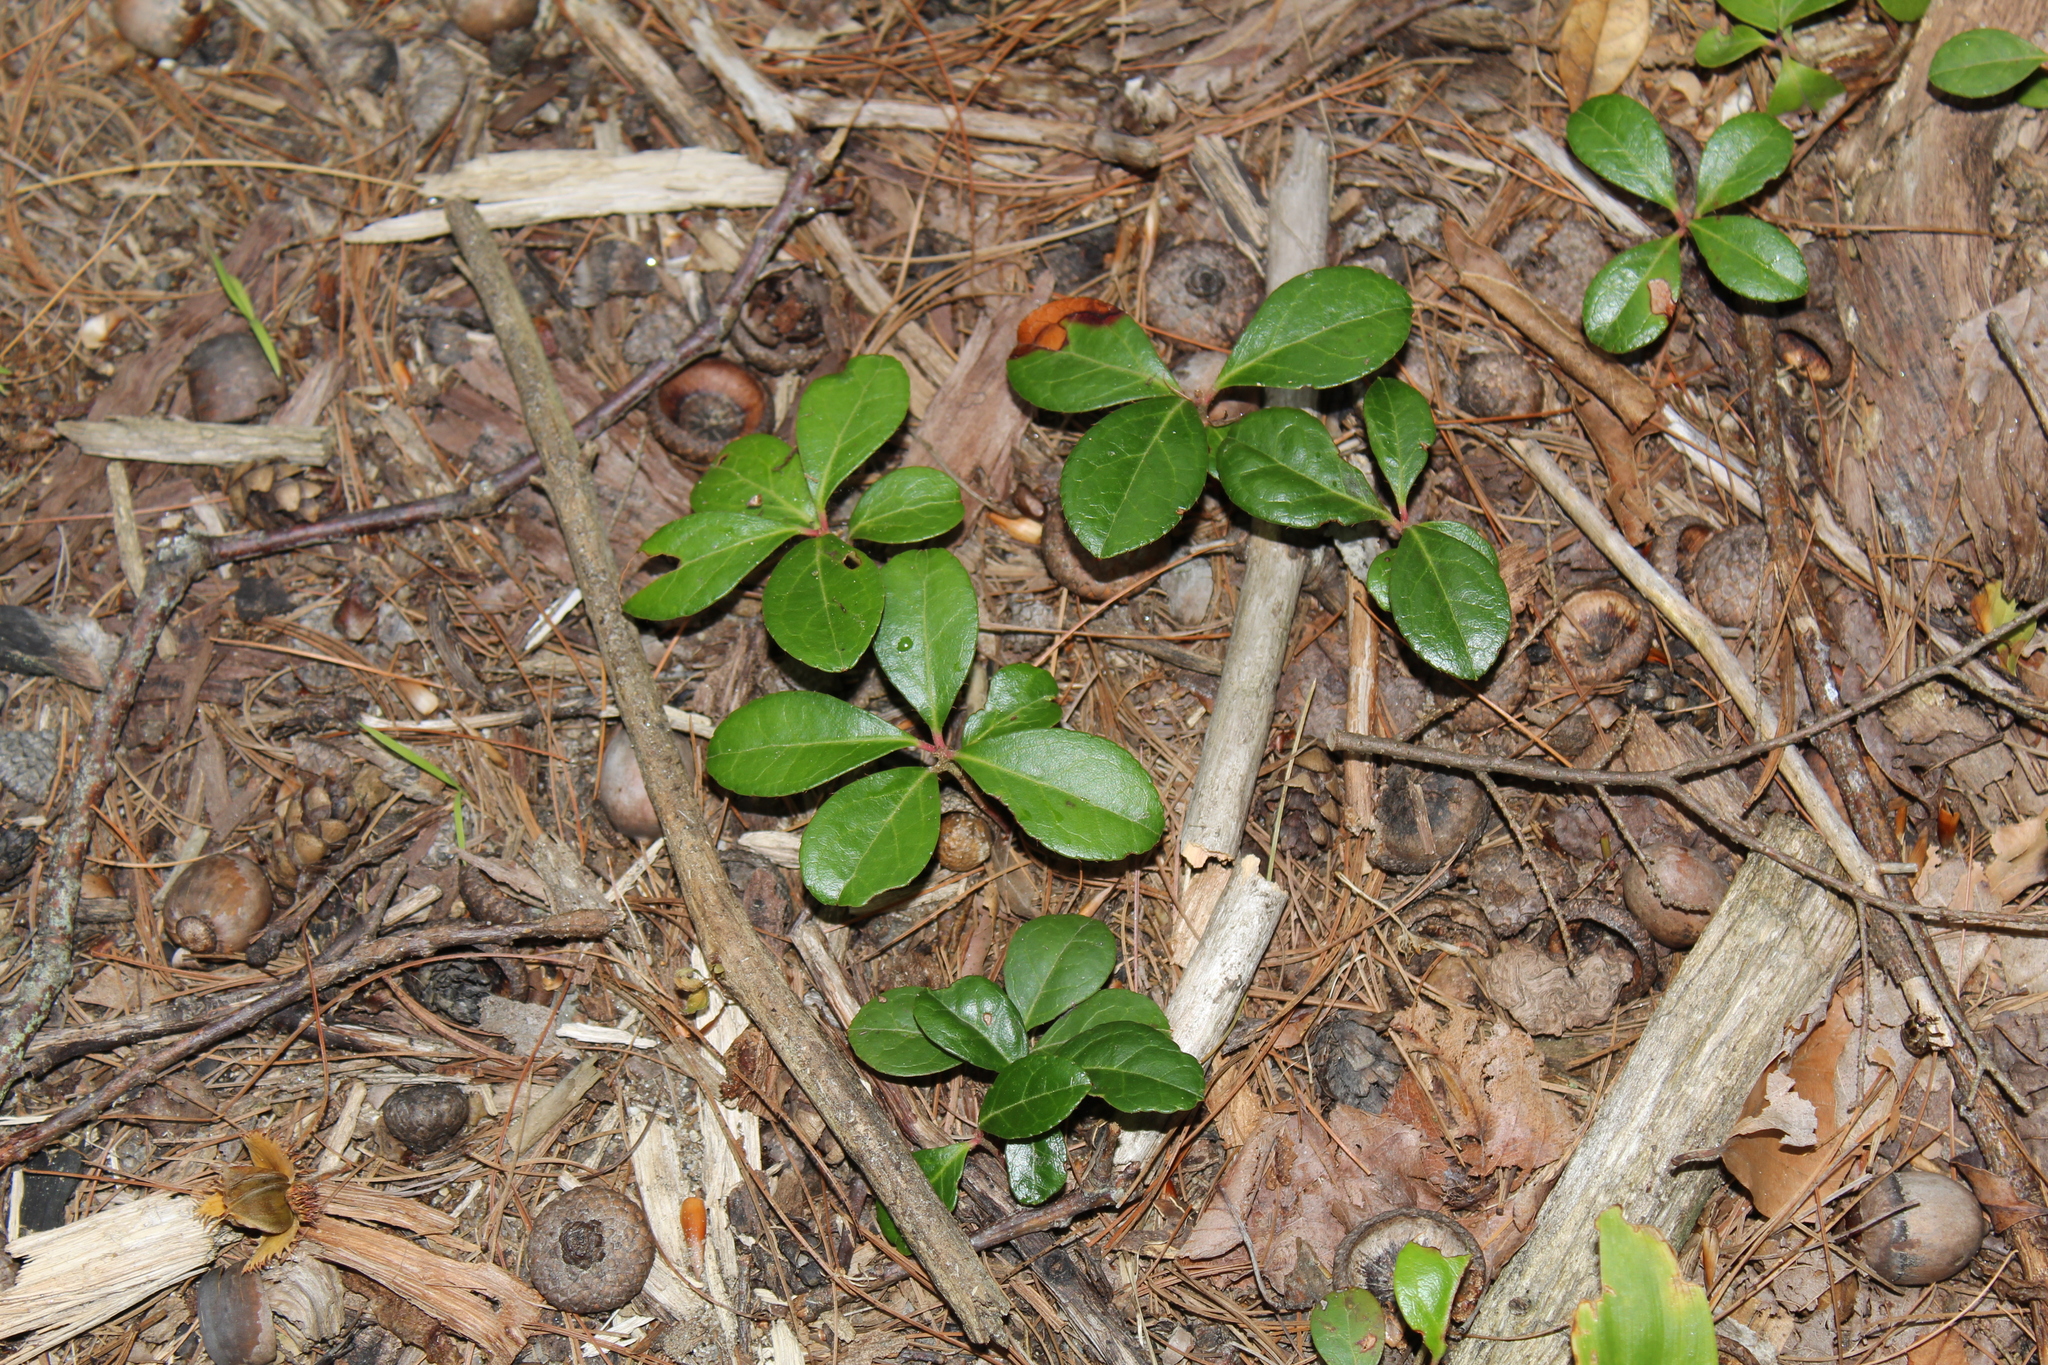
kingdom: Plantae
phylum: Tracheophyta
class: Magnoliopsida
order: Ericales
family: Ericaceae
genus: Gaultheria
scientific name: Gaultheria procumbens
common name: Checkerberry
